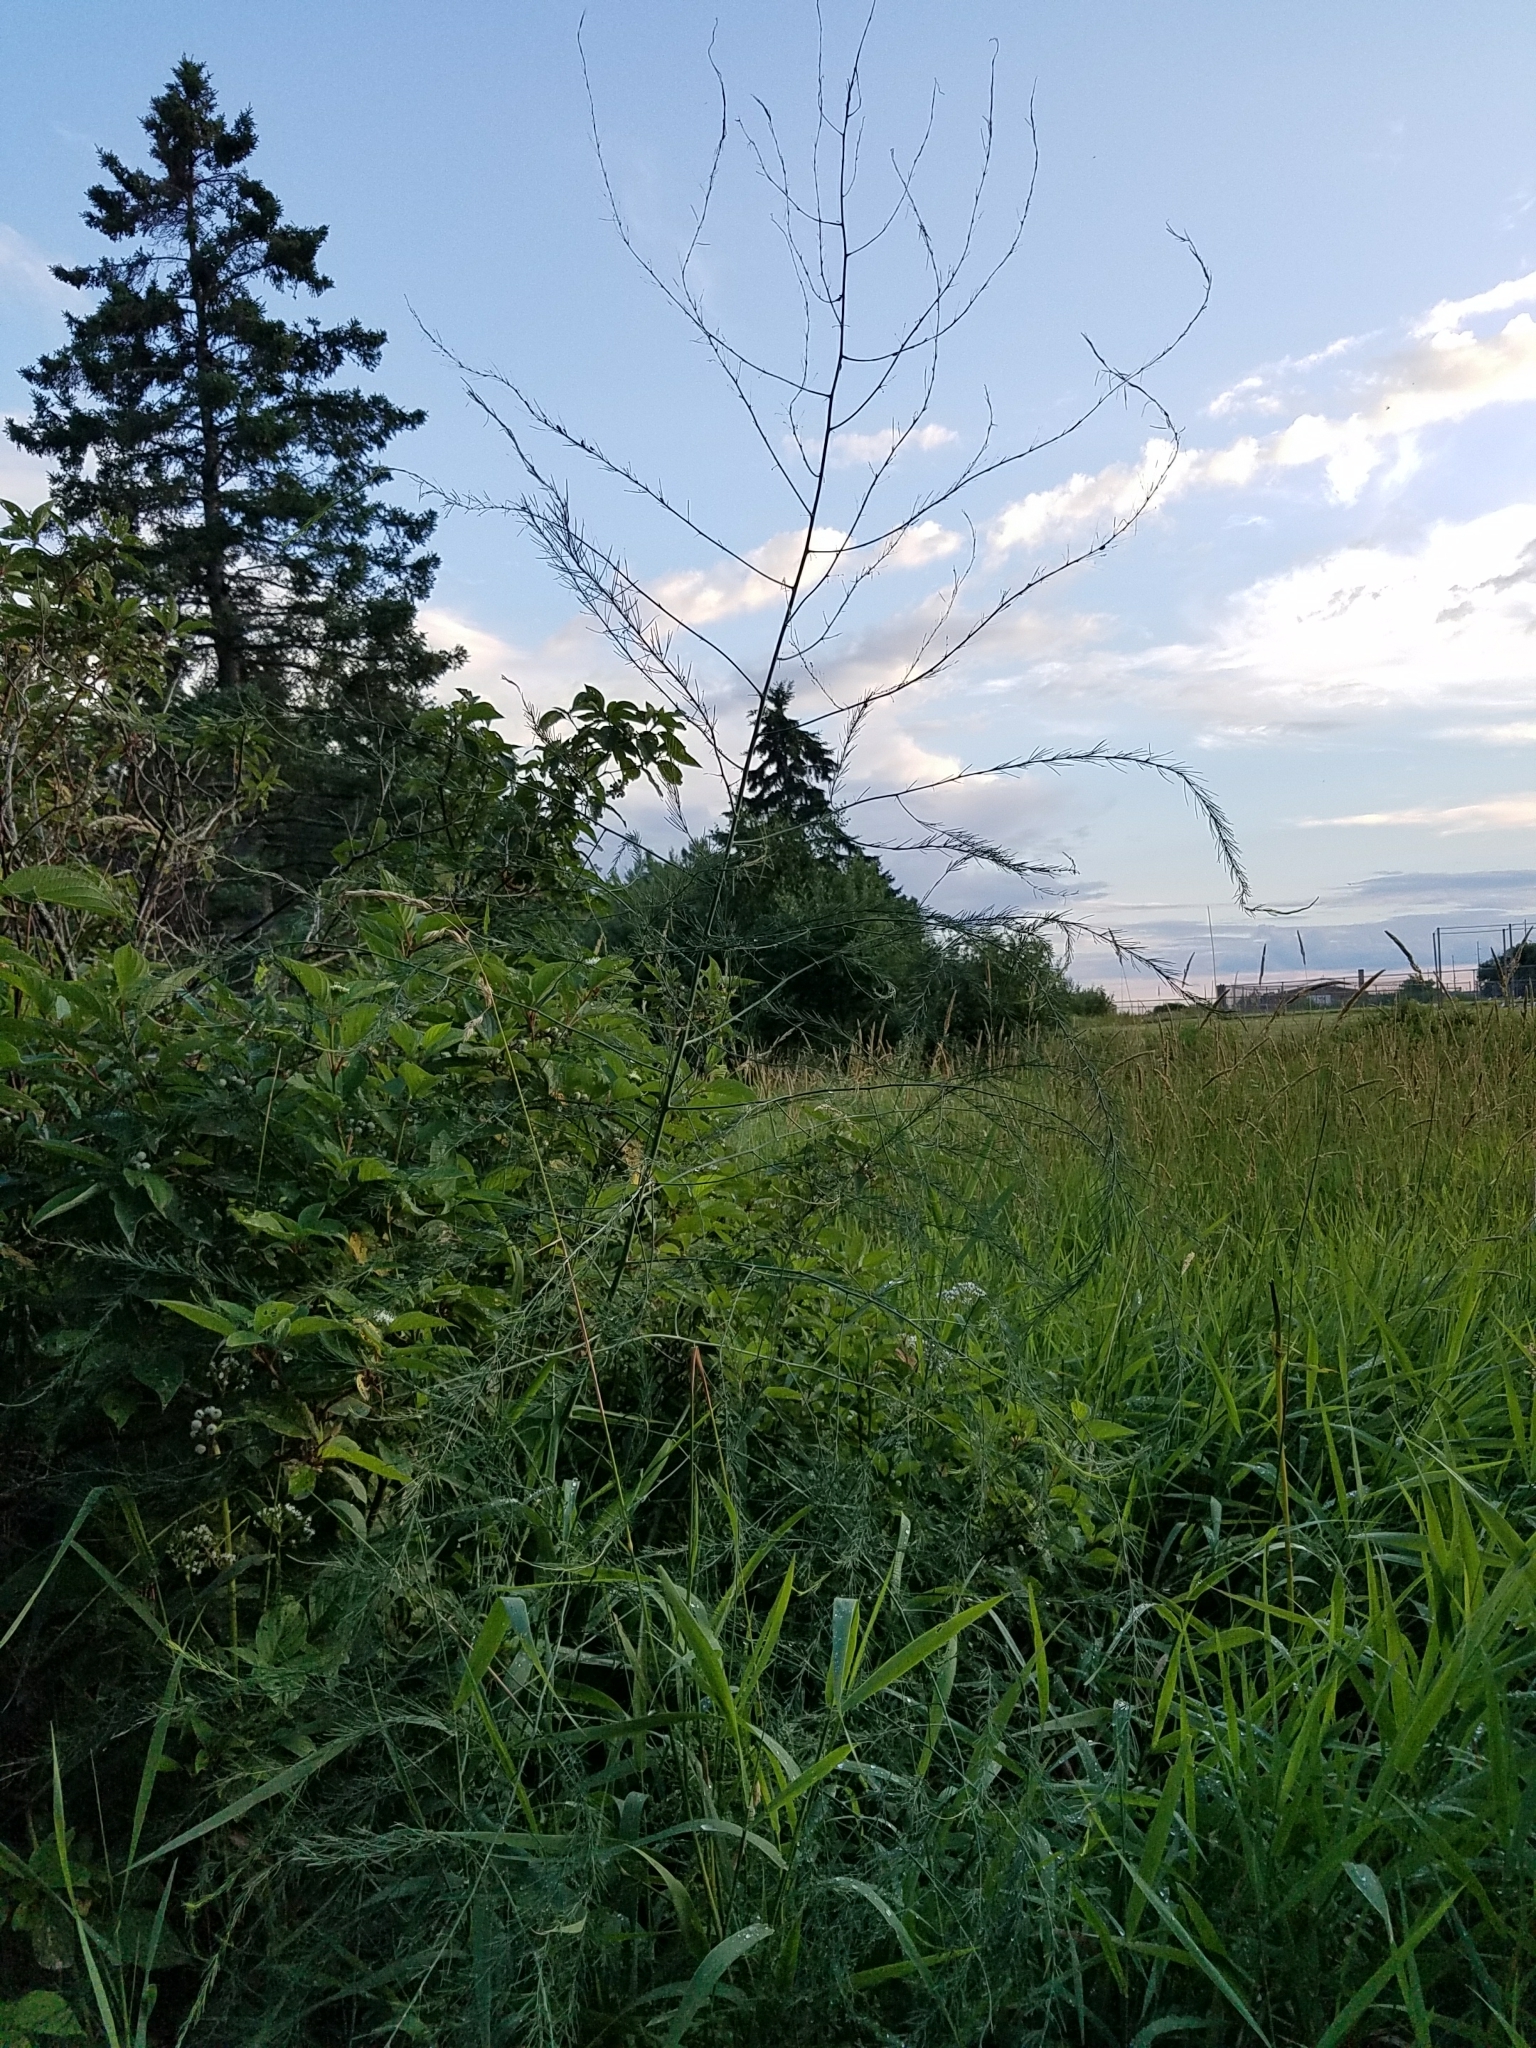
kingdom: Plantae
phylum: Tracheophyta
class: Liliopsida
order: Asparagales
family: Asparagaceae
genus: Asparagus
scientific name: Asparagus officinalis
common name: Garden asparagus
